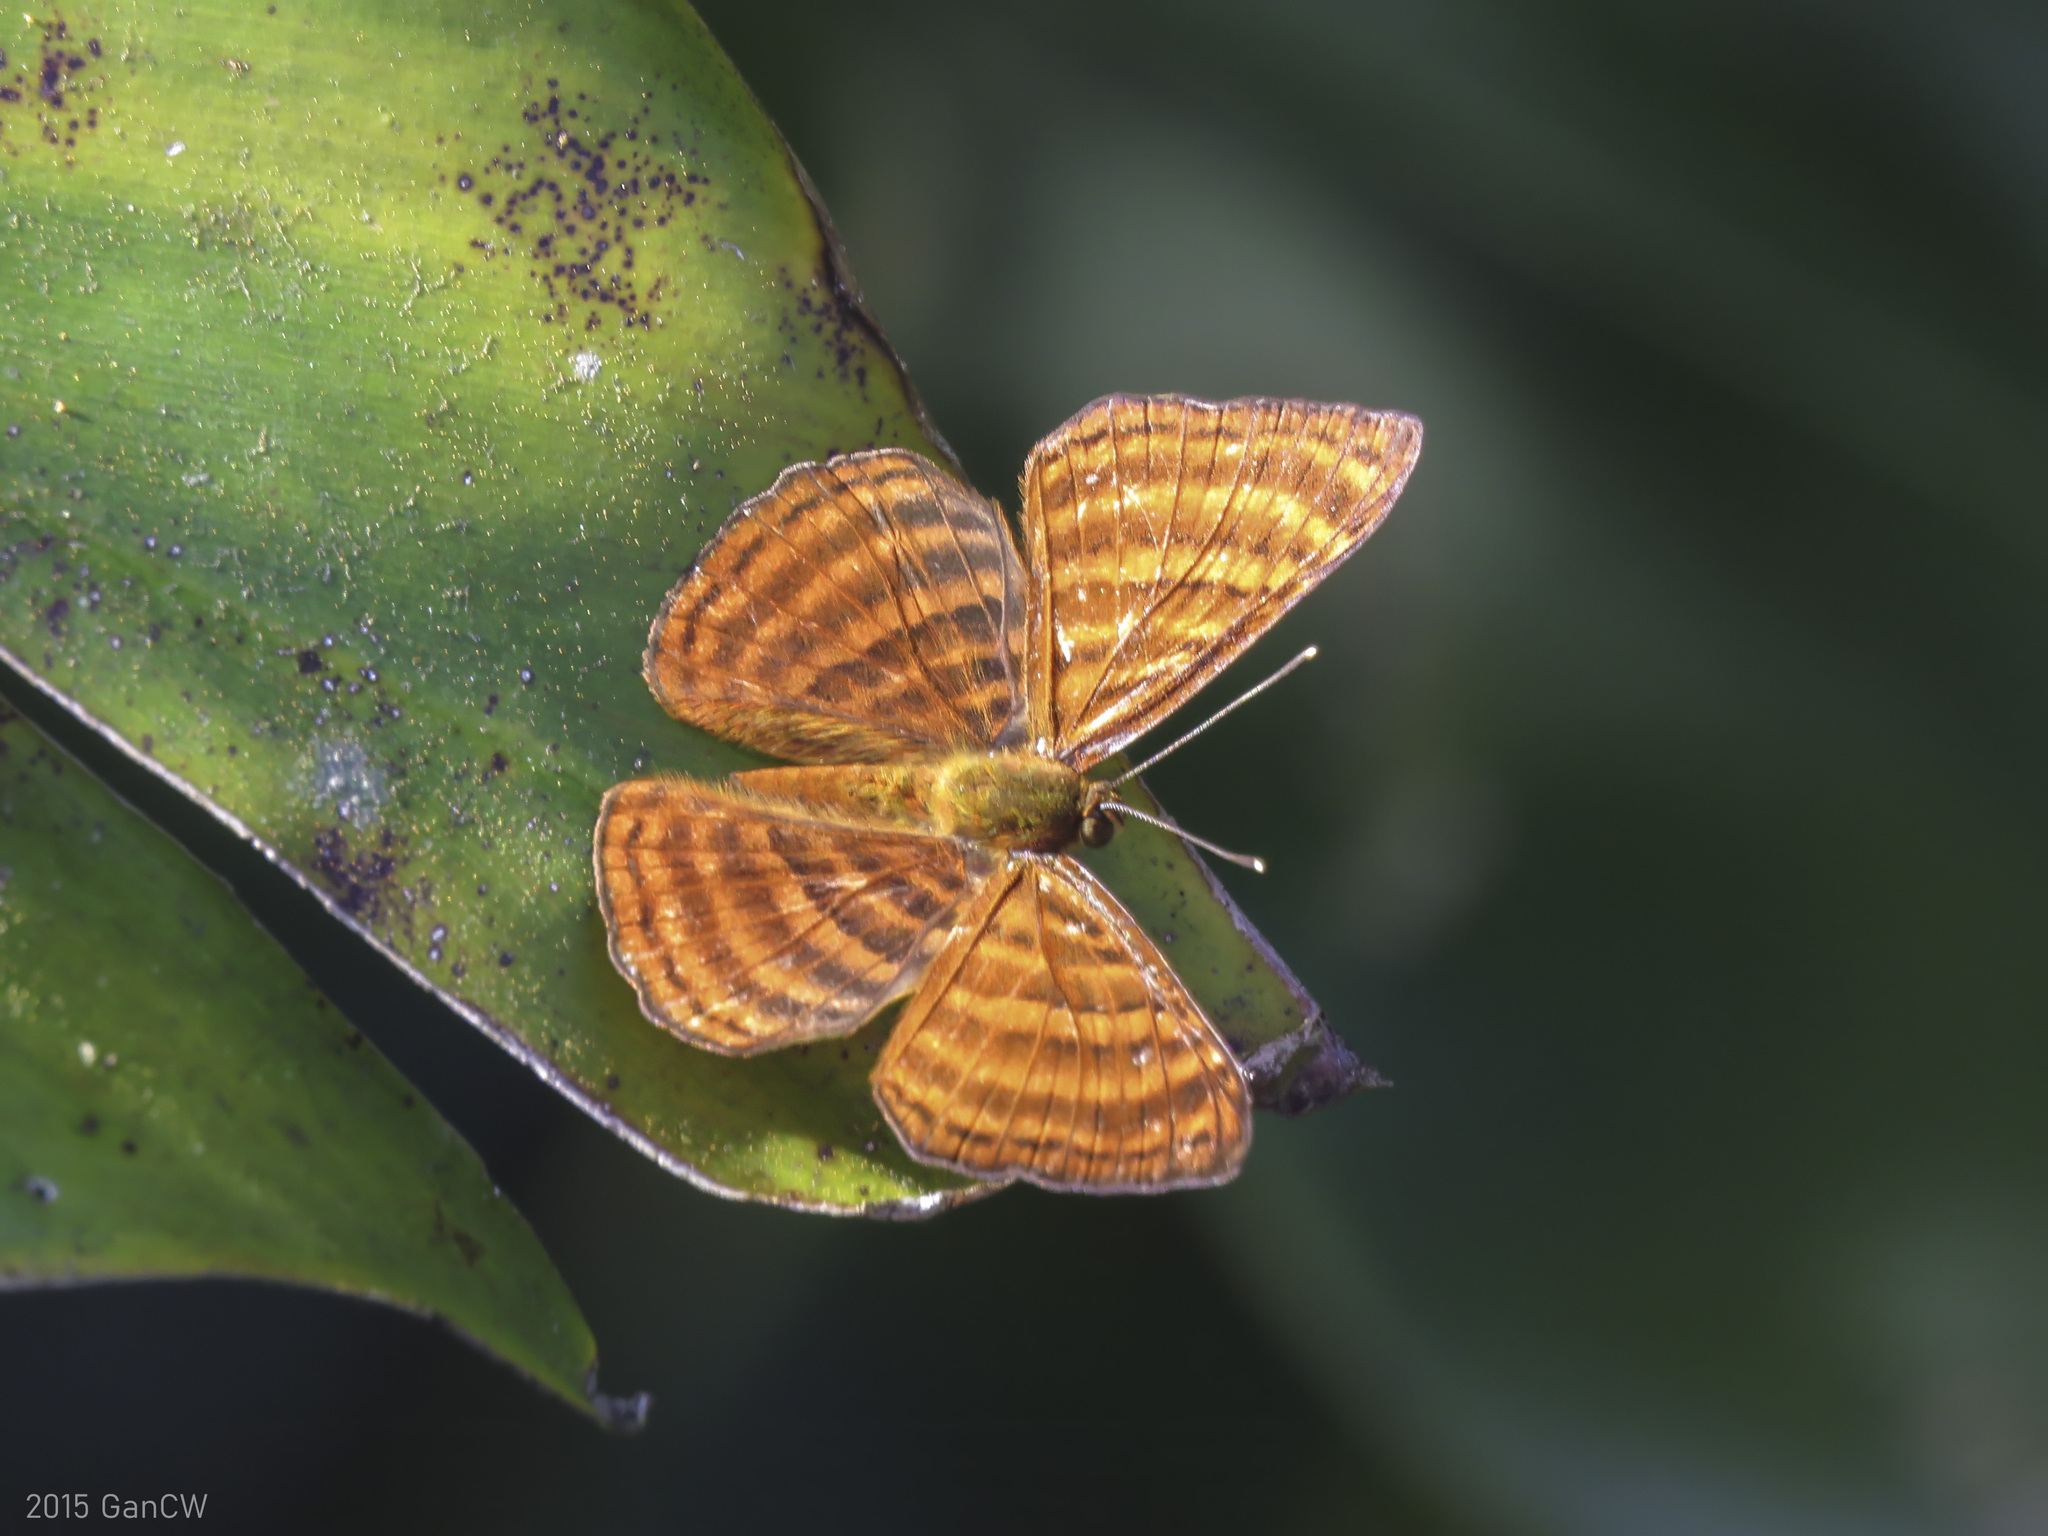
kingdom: Animalia
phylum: Arthropoda
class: Insecta
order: Lepidoptera
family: Riodinidae
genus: Zemeros
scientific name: Zemeros emesoides
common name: Malay punchinello
